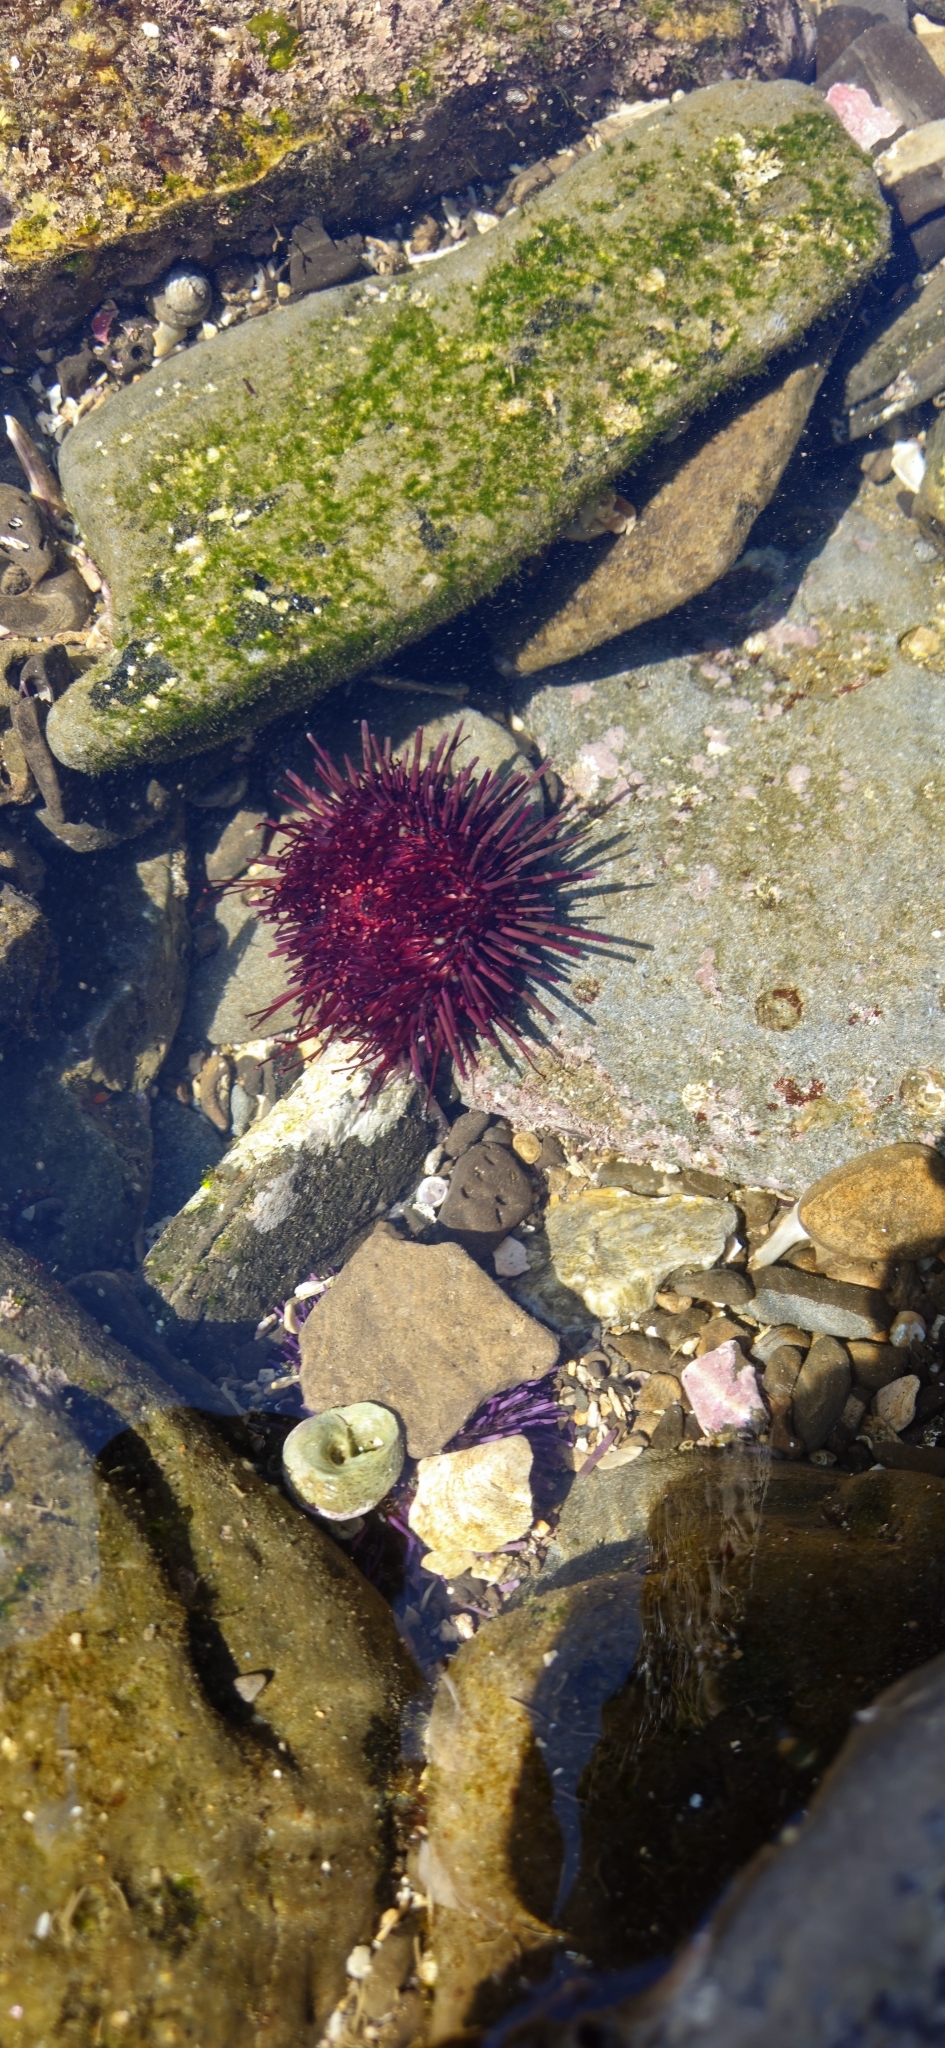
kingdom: Animalia
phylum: Echinodermata
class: Echinoidea
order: Camarodonta
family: Strongylocentrotidae
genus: Mesocentrotus
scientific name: Mesocentrotus franciscanus
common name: Red sea urchin
